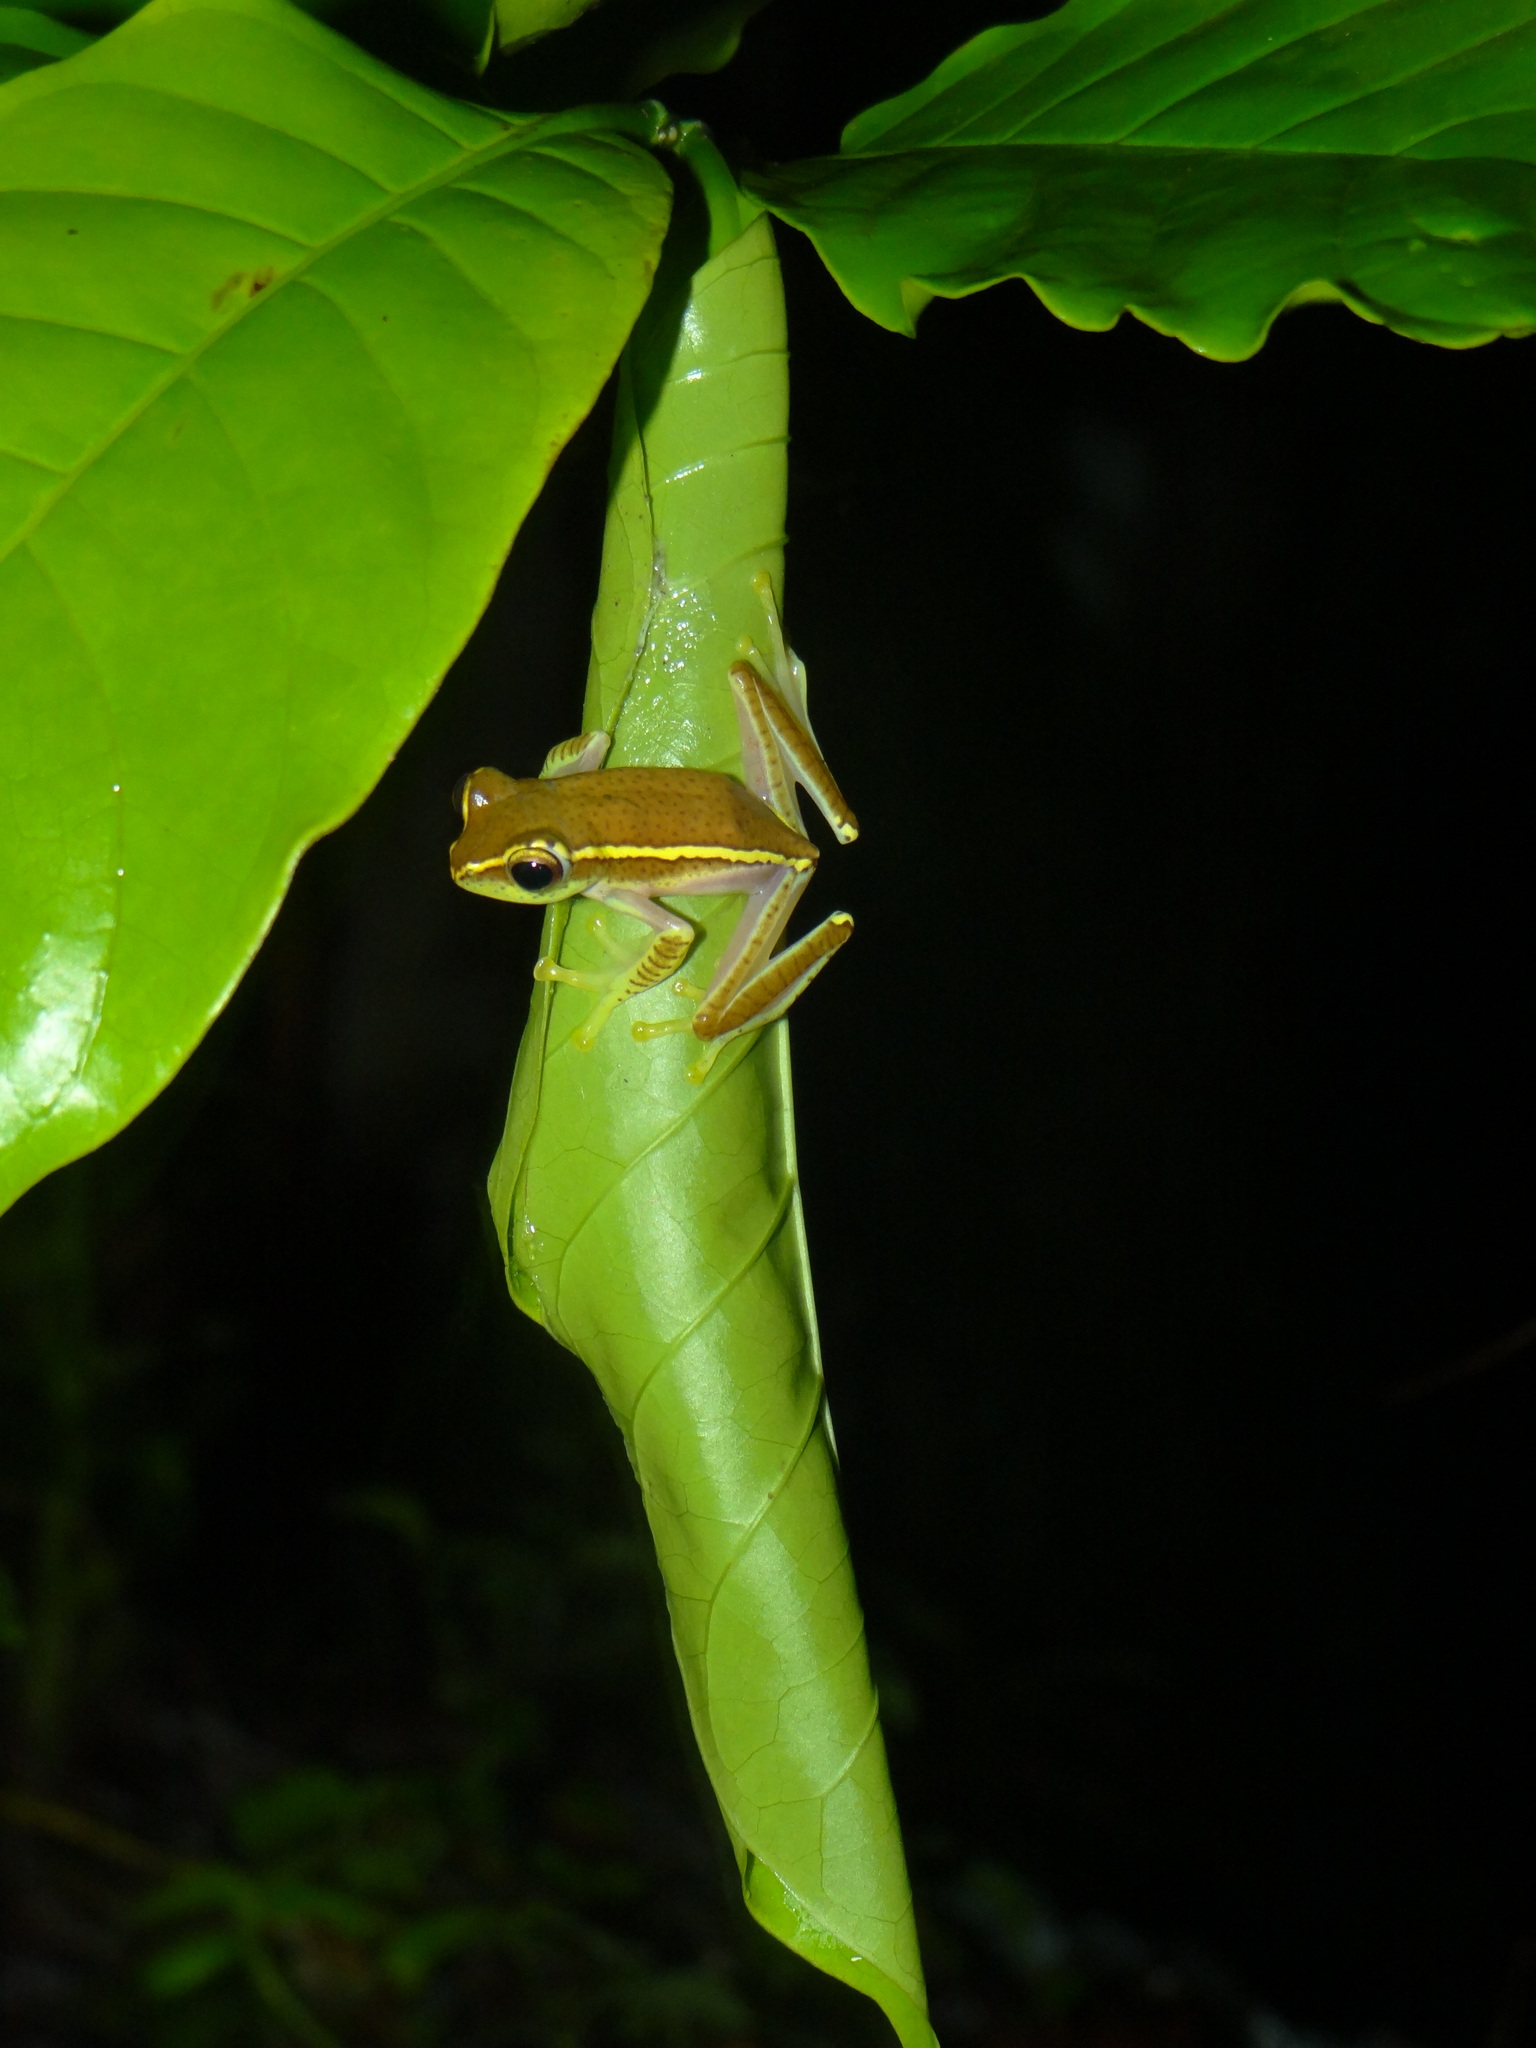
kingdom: Animalia
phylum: Chordata
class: Amphibia
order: Anura
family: Rhacophoridae
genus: Rhacophorus
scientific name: Rhacophorus lateralis
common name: Boulenger's tree frog
